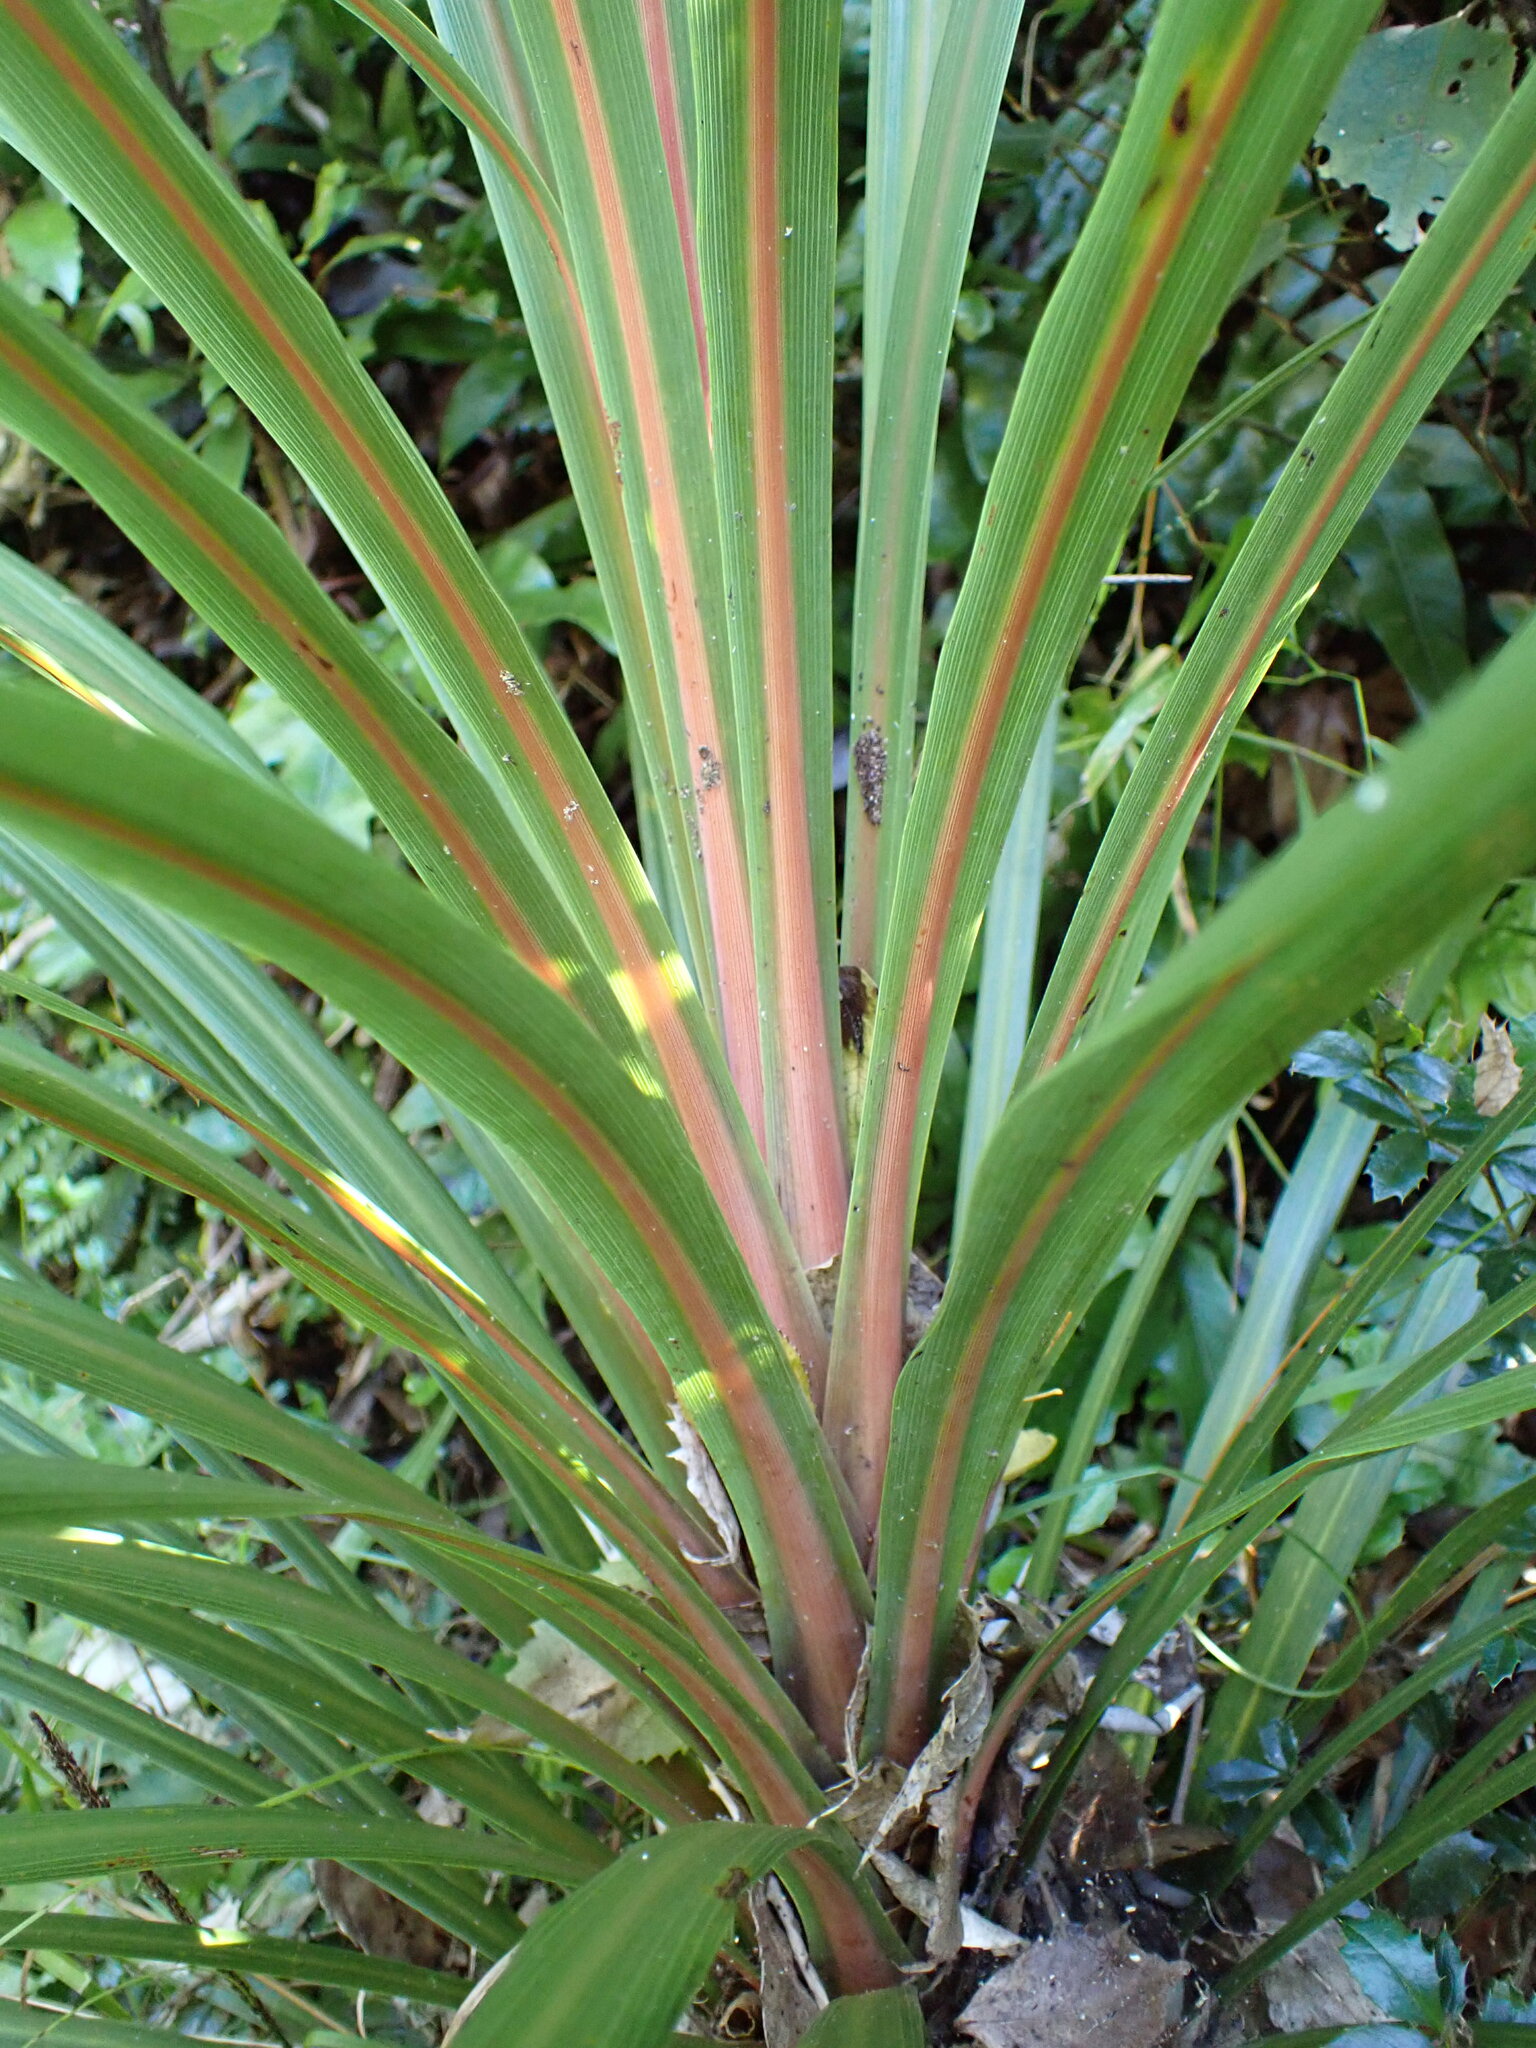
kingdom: Plantae
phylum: Tracheophyta
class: Liliopsida
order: Asparagales
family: Asparagaceae
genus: Cordyline
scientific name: Cordyline australis
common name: Cabbage-palm
